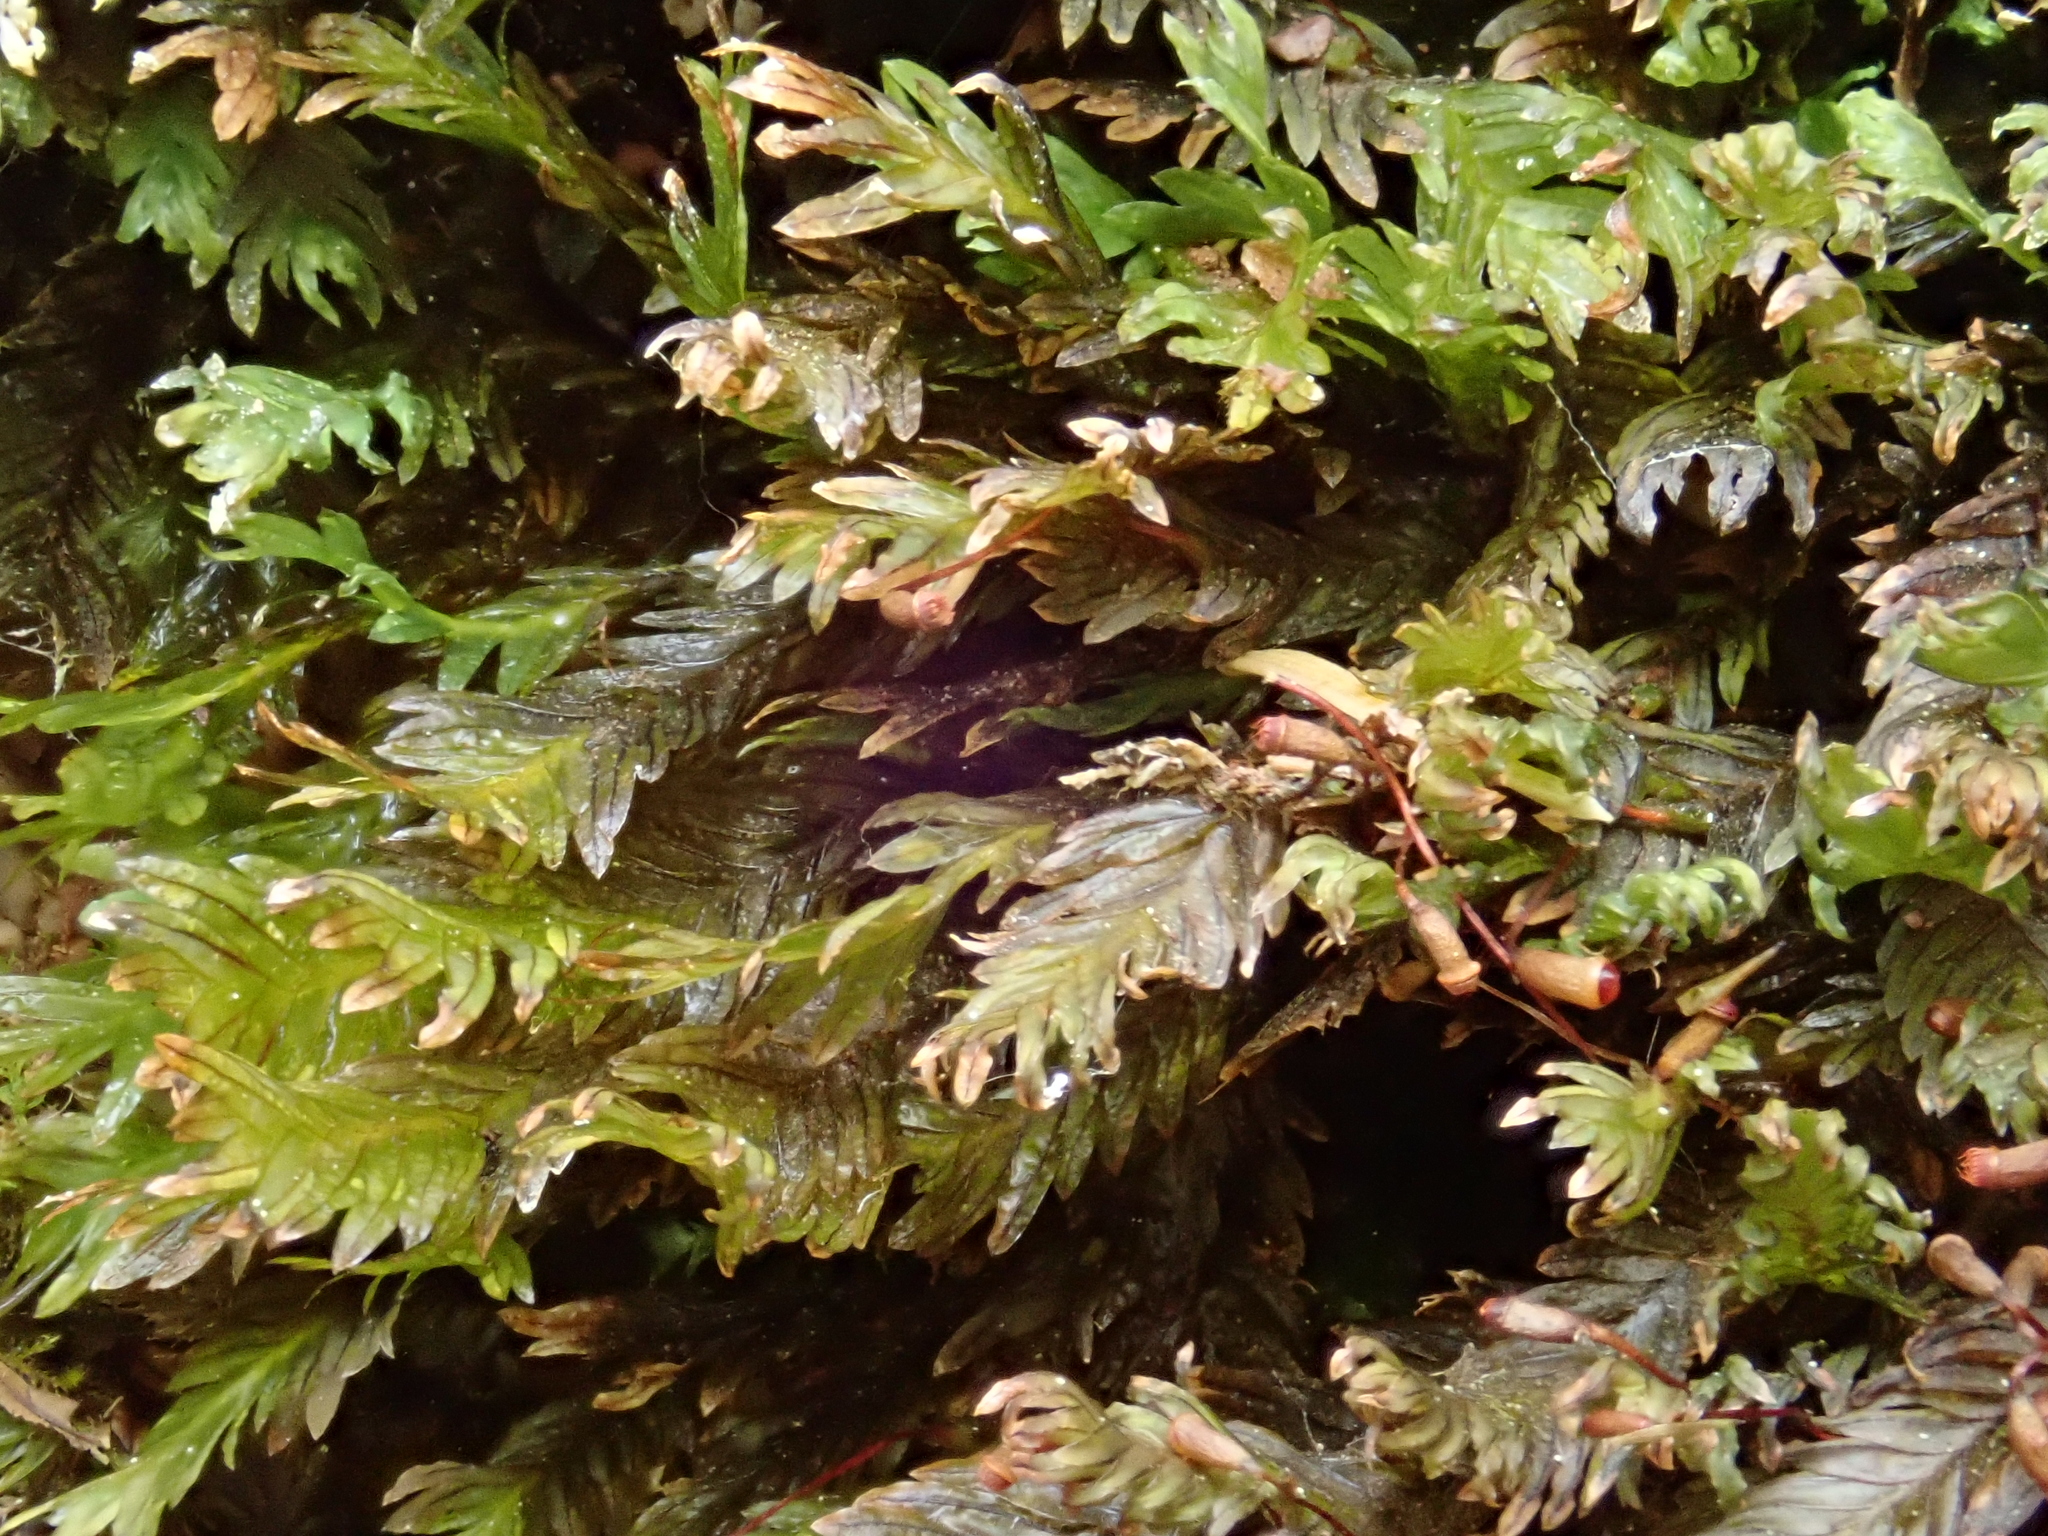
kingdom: Plantae
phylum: Bryophyta
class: Bryopsida
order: Dicranales
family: Fissidentaceae
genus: Fissidens
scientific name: Fissidens dubius
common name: Rock pocket moss
